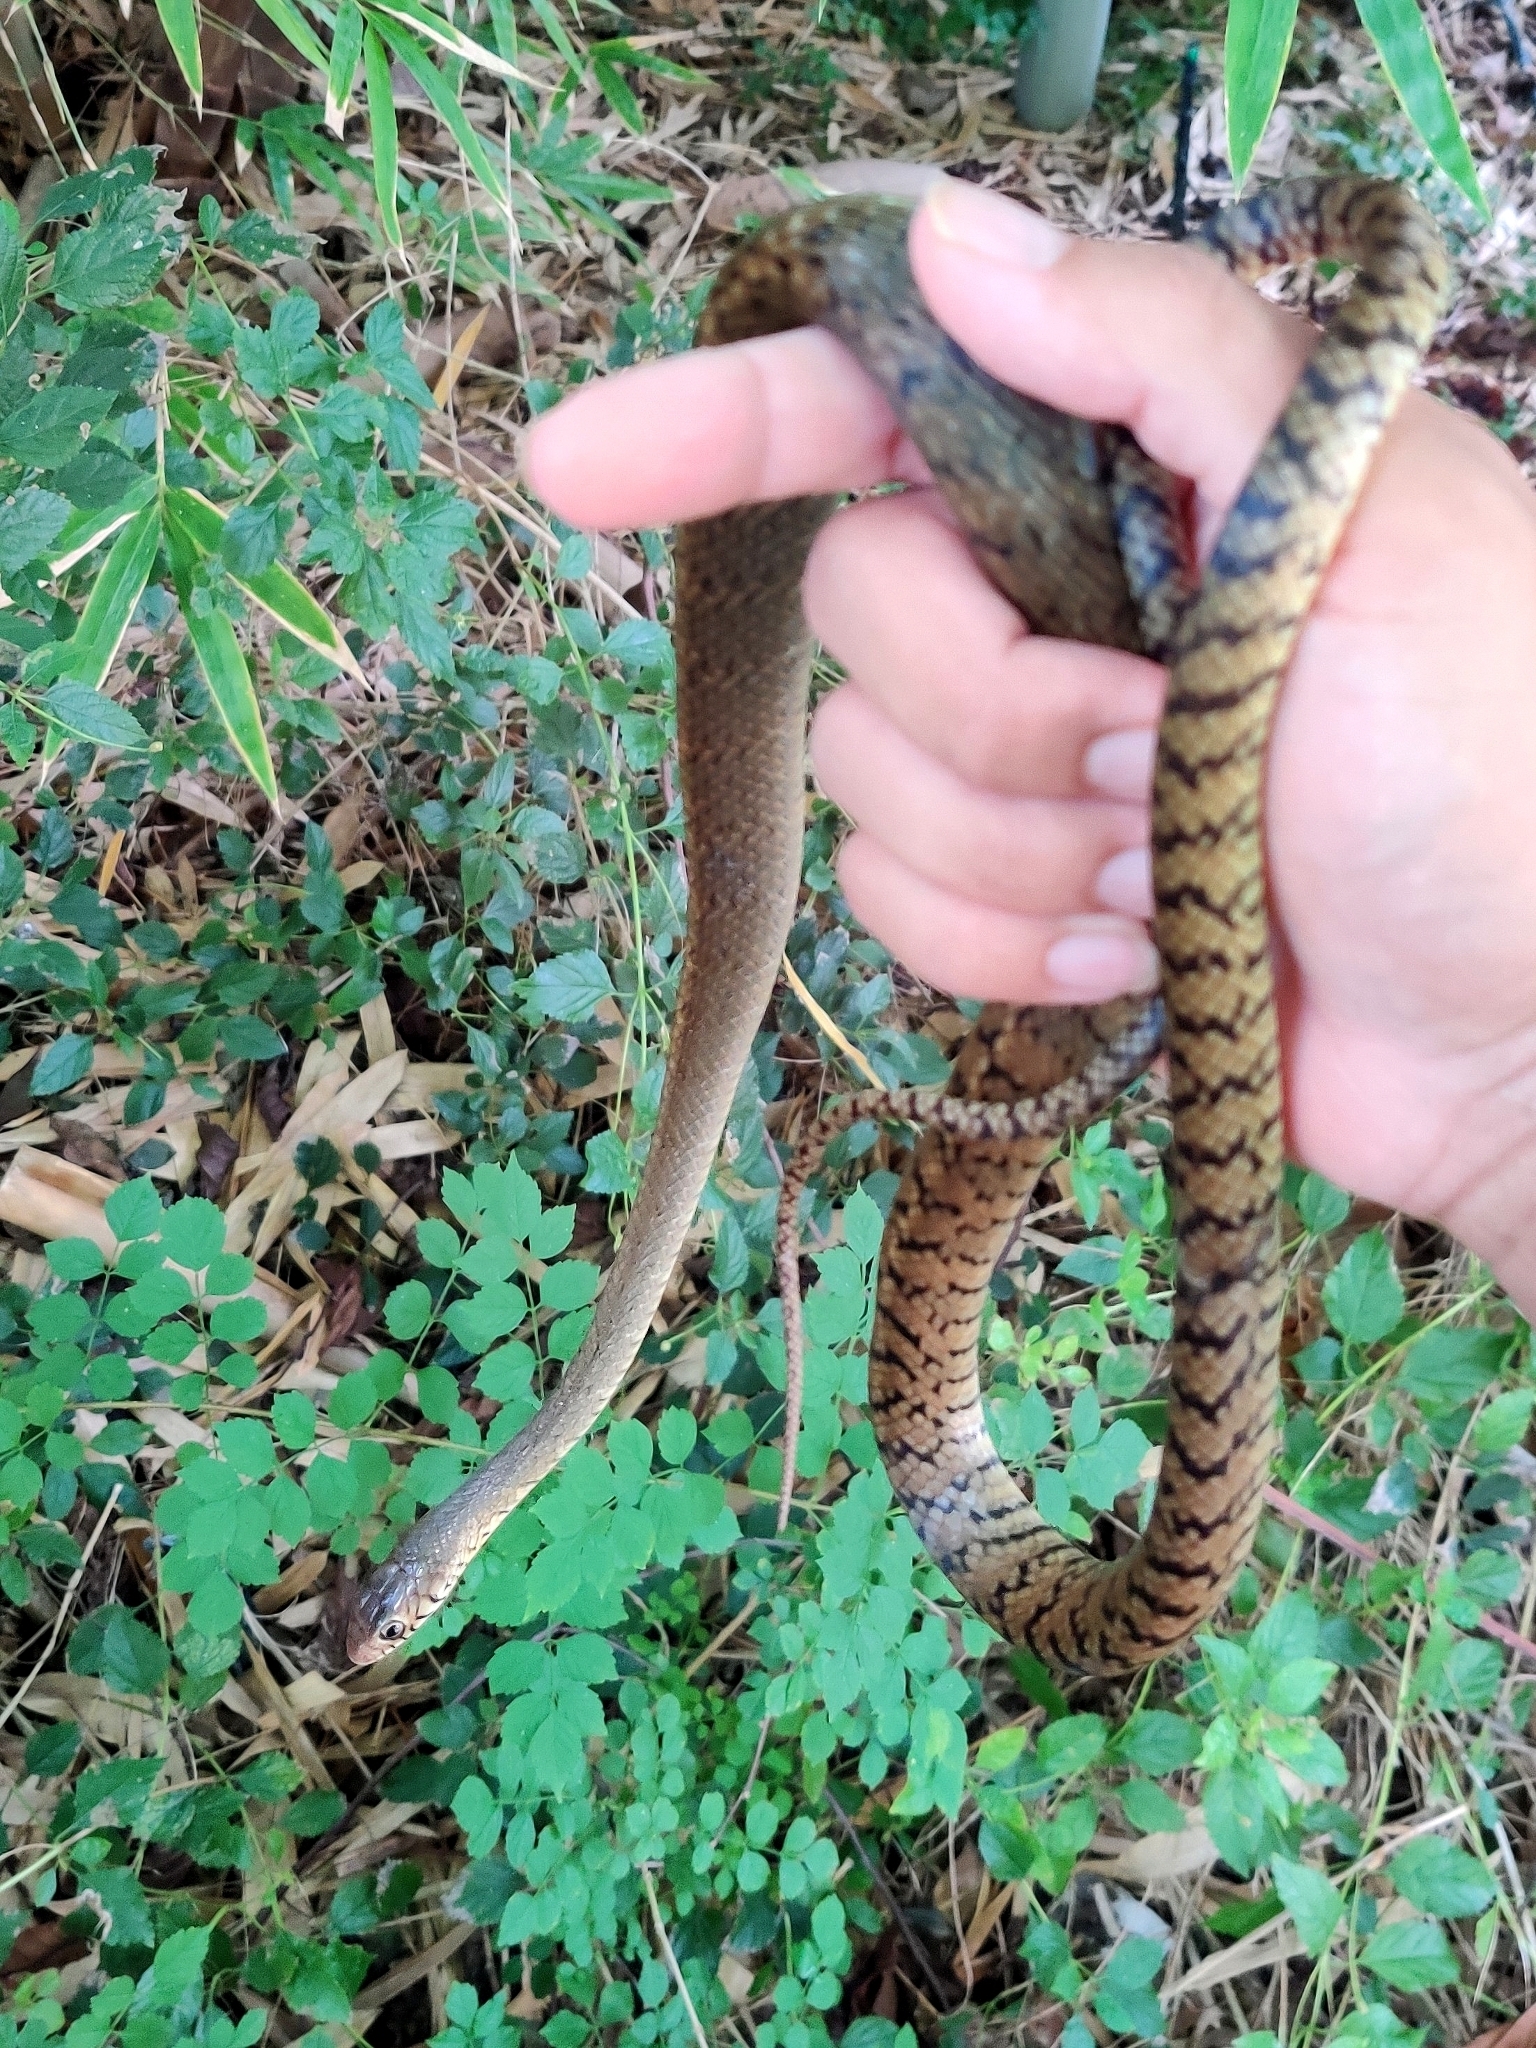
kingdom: Animalia
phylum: Chordata
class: Squamata
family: Colubridae
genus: Ptyas
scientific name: Ptyas mucosa
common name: Oriental ratsnake
